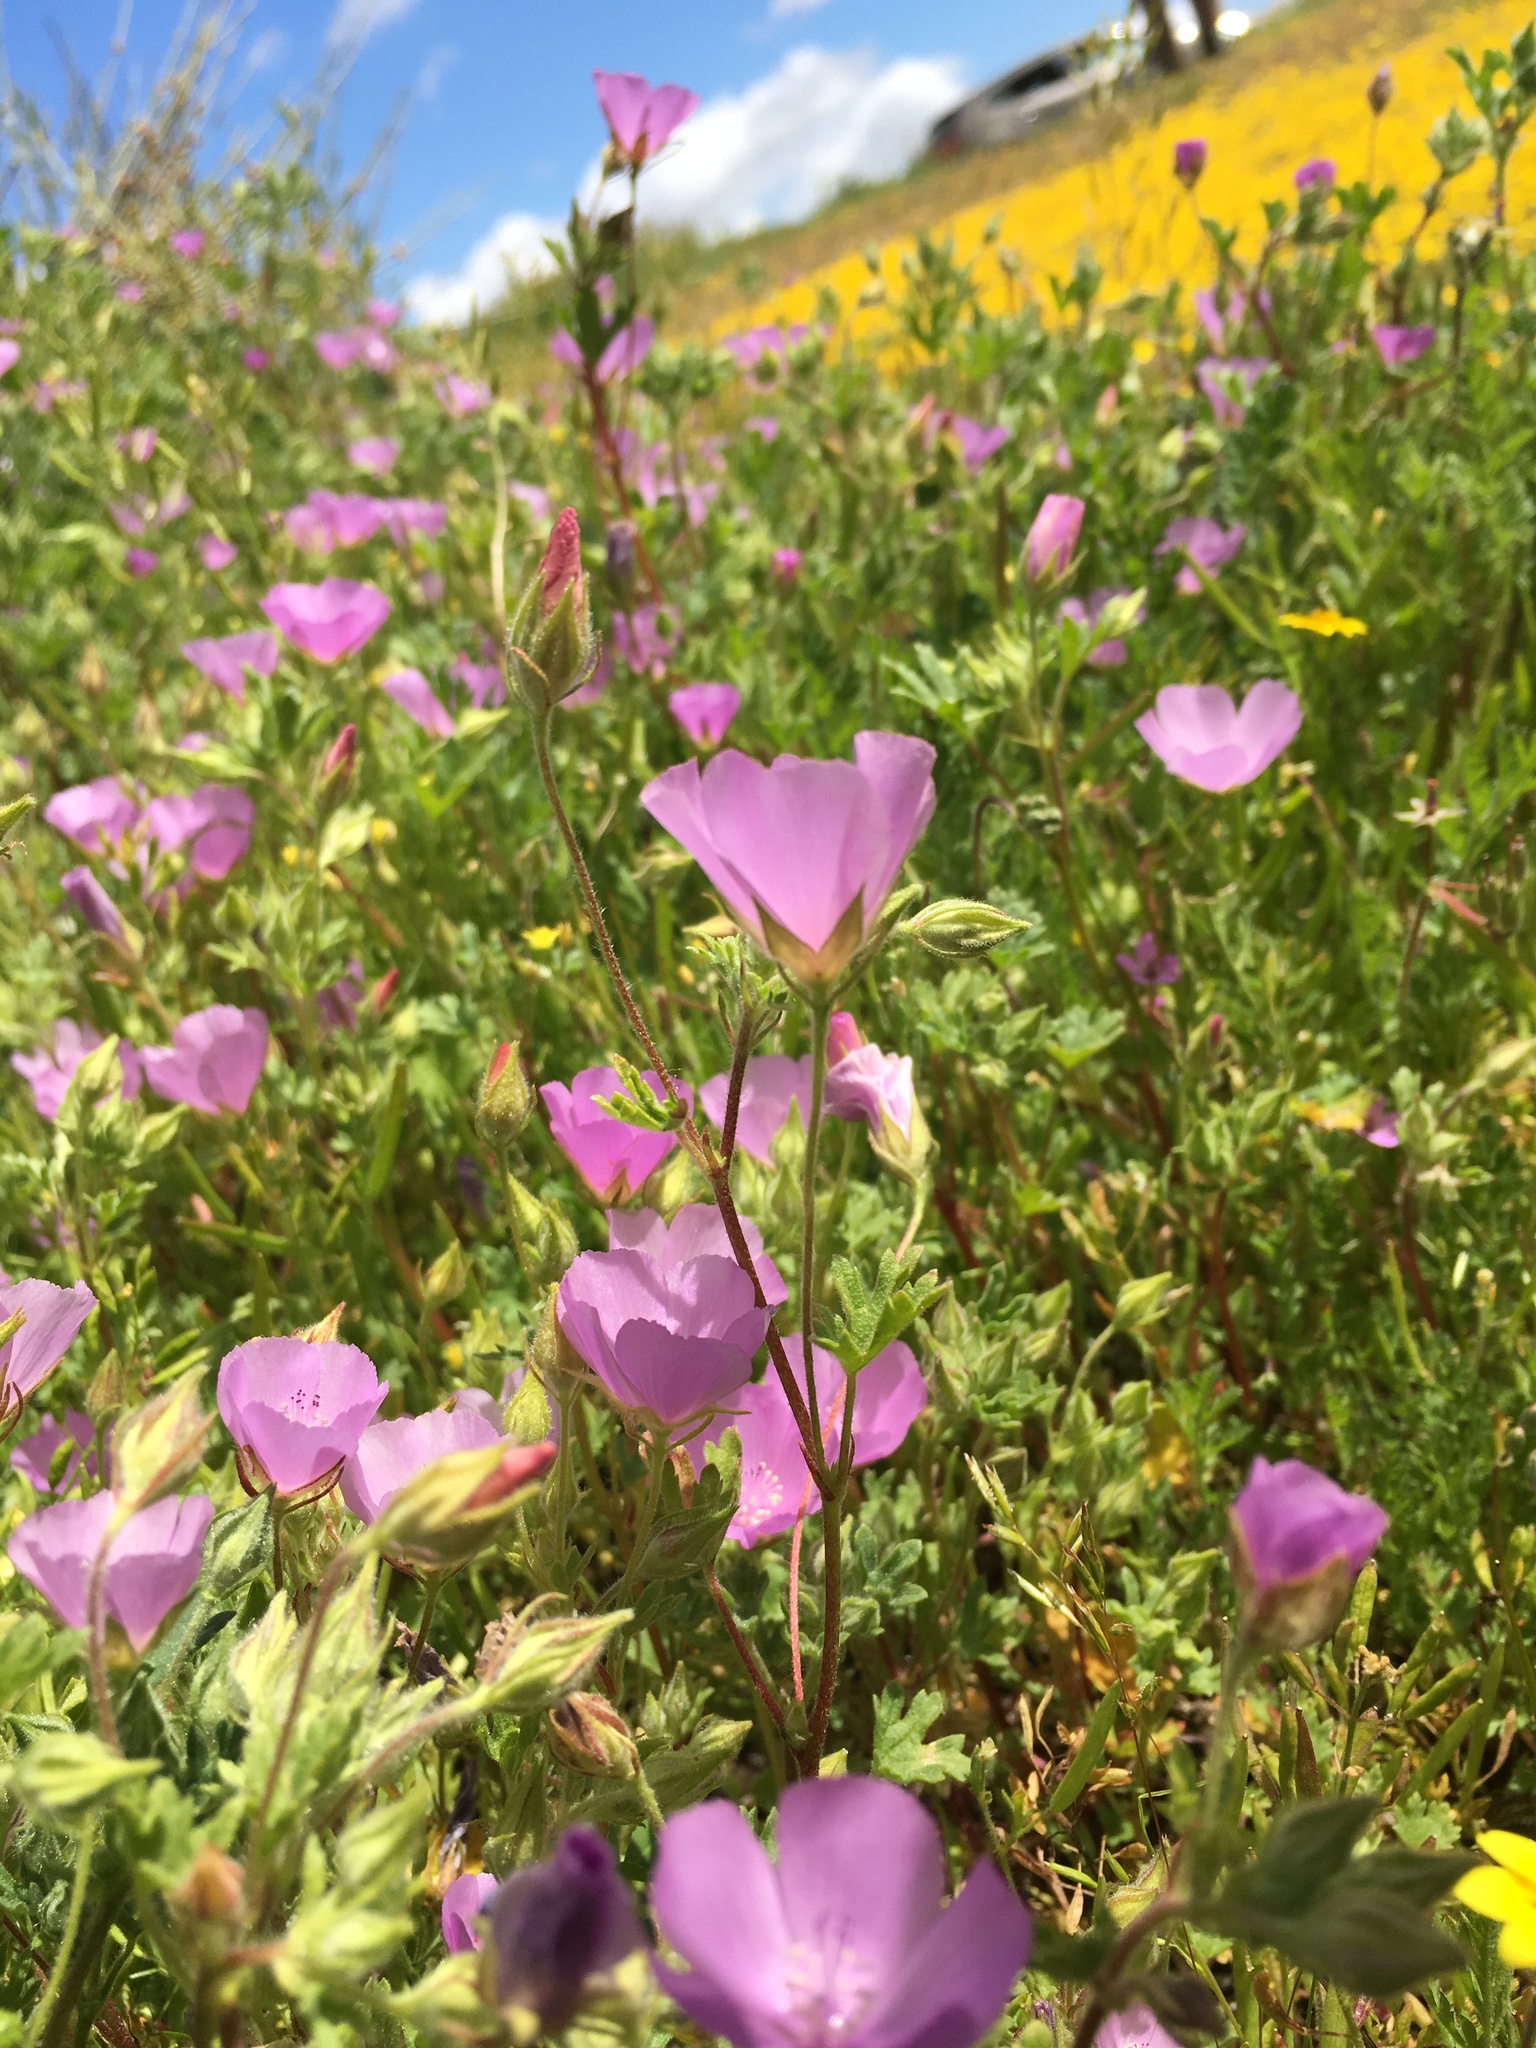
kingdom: Plantae
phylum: Tracheophyta
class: Magnoliopsida
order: Malvales
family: Malvaceae
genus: Eremalche
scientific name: Eremalche parryi
